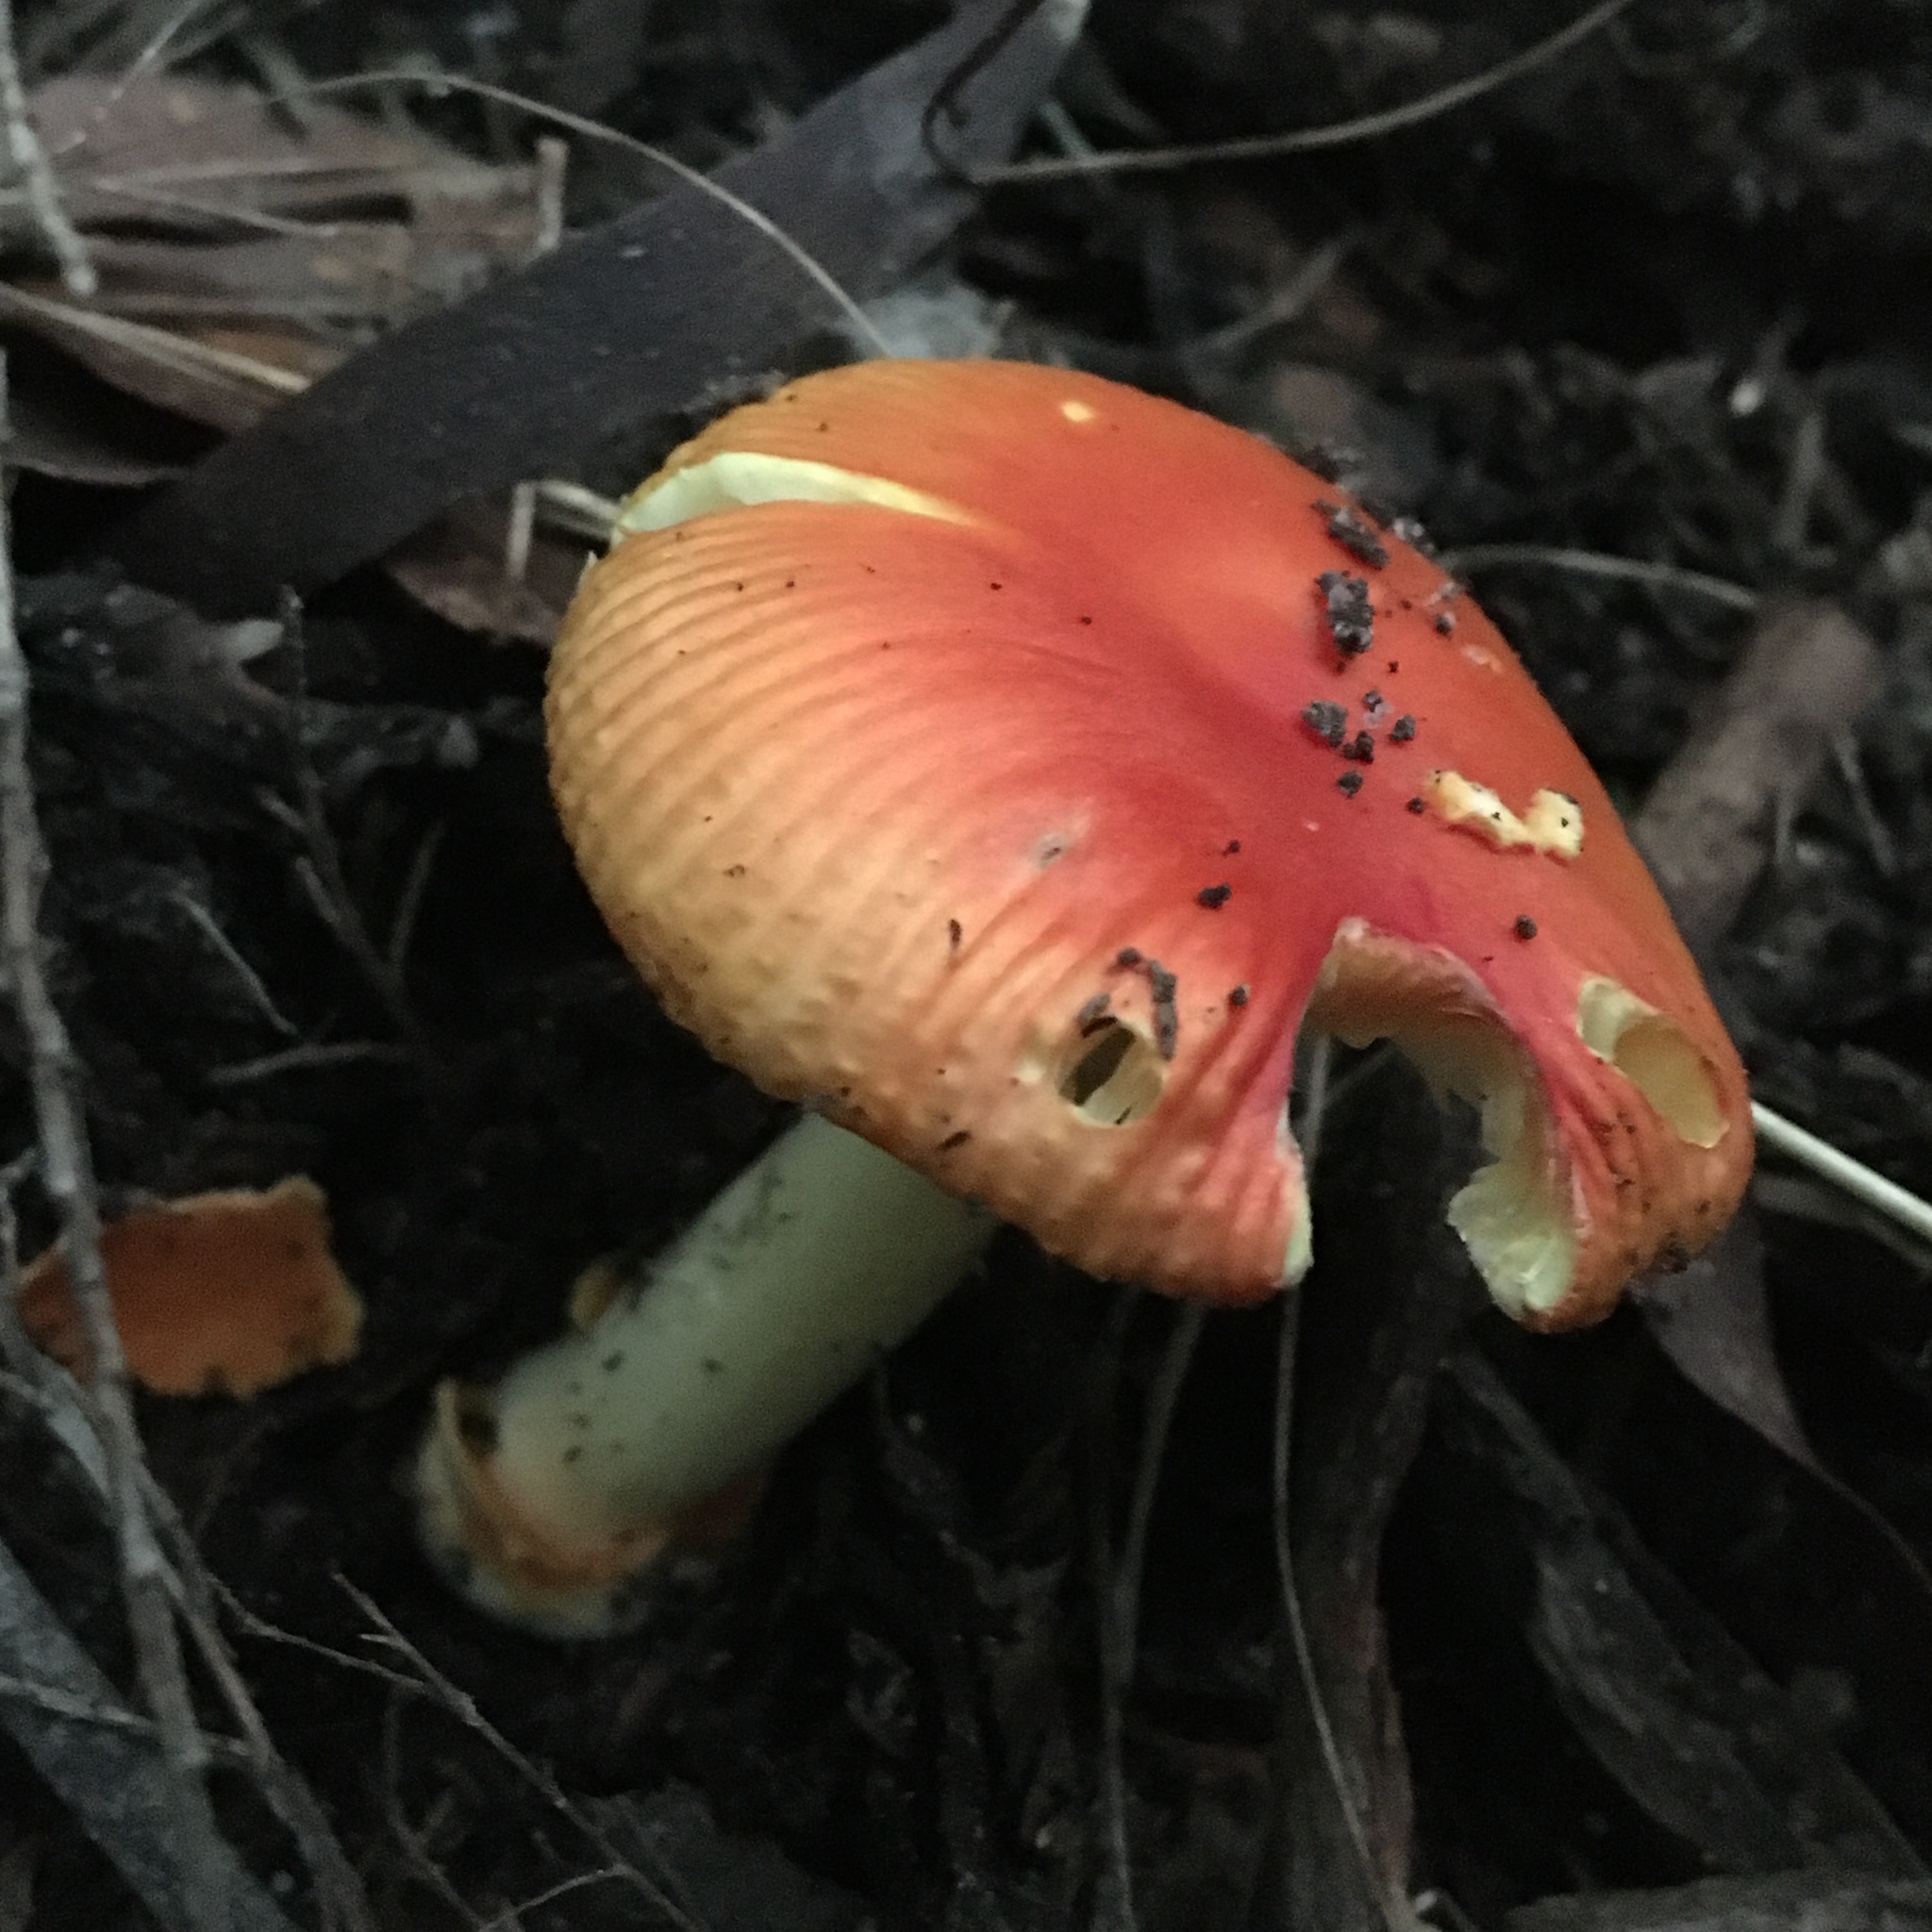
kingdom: Fungi
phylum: Basidiomycota
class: Agaricomycetes
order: Agaricales
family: Amanitaceae
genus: Amanita
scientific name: Amanita xanthocephala
